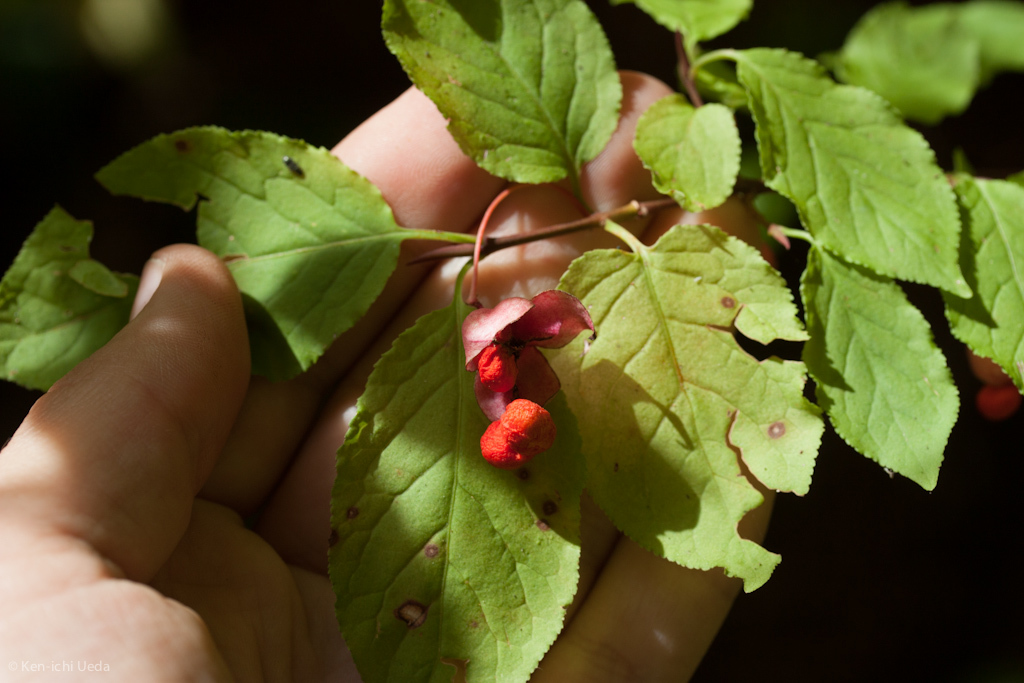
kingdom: Plantae
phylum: Tracheophyta
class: Magnoliopsida
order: Celastrales
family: Celastraceae
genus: Euonymus
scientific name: Euonymus occidentalis
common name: Western burningbush
